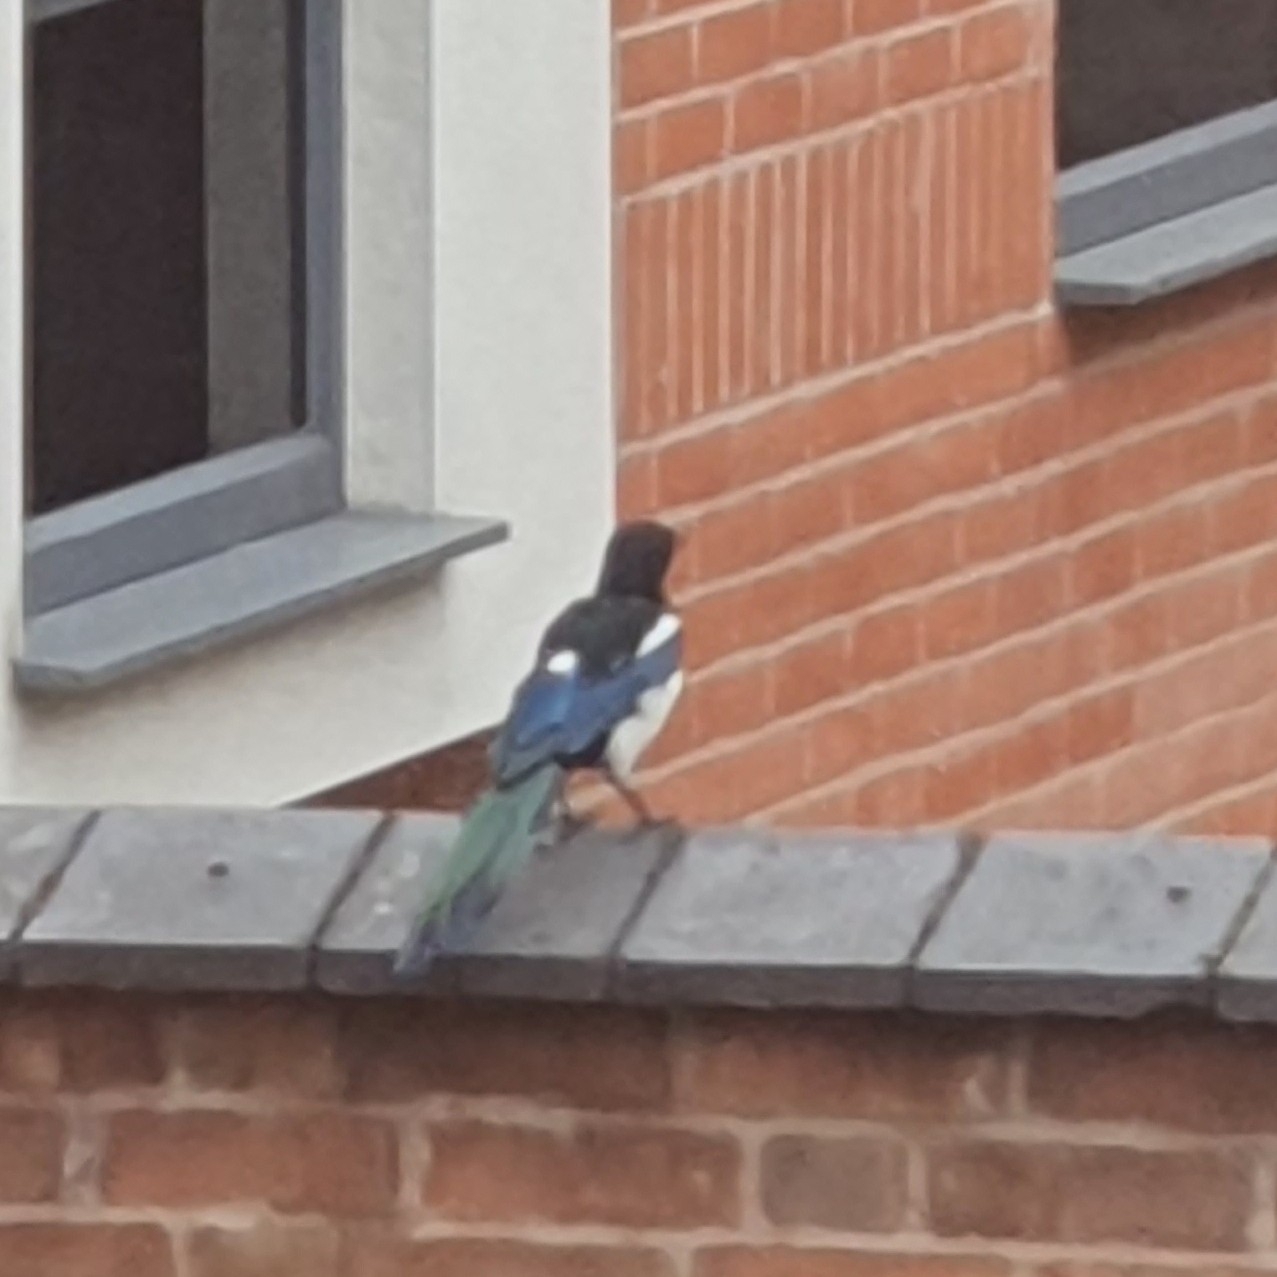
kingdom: Animalia
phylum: Chordata
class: Aves
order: Passeriformes
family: Corvidae
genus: Pica
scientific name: Pica pica
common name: Eurasian magpie
